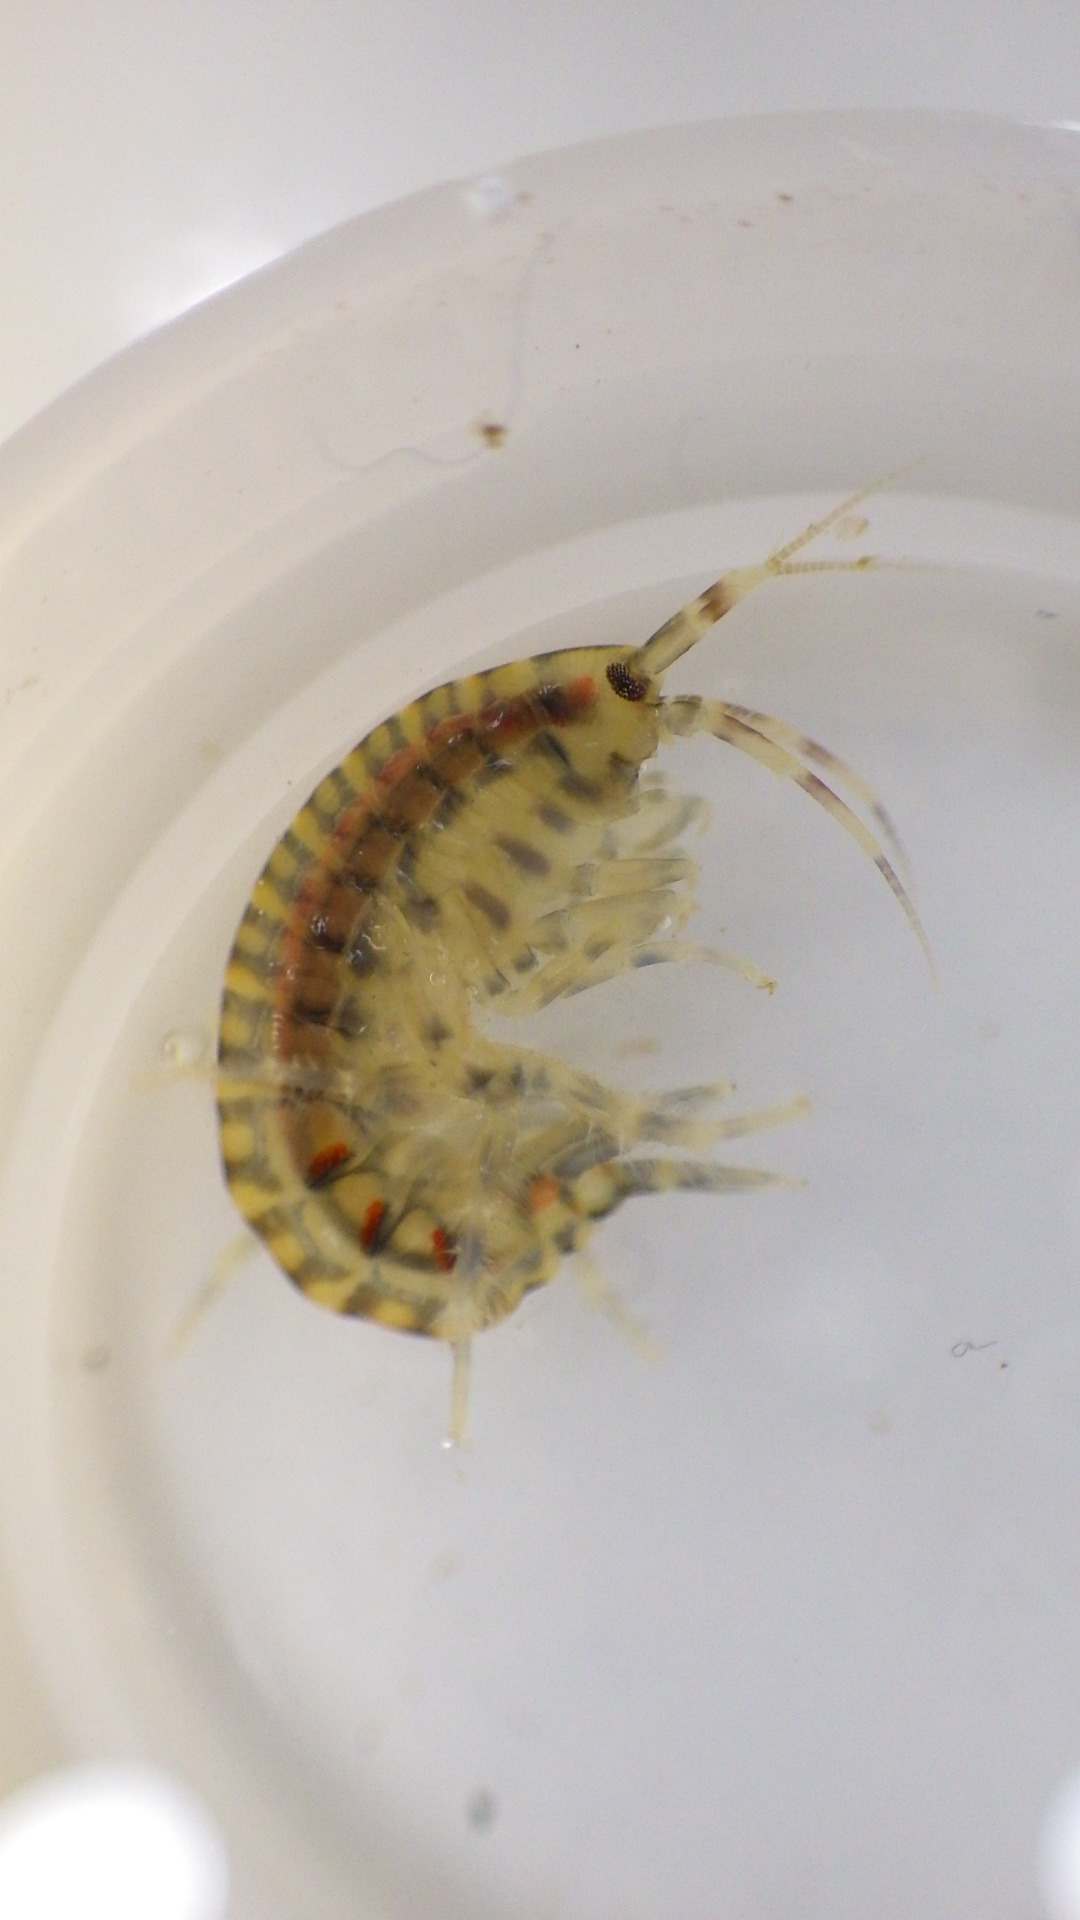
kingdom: Animalia
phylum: Arthropoda
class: Malacostraca
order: Amphipoda
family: Gammaridae
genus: Gammarus
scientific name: Gammarus fasciatus
